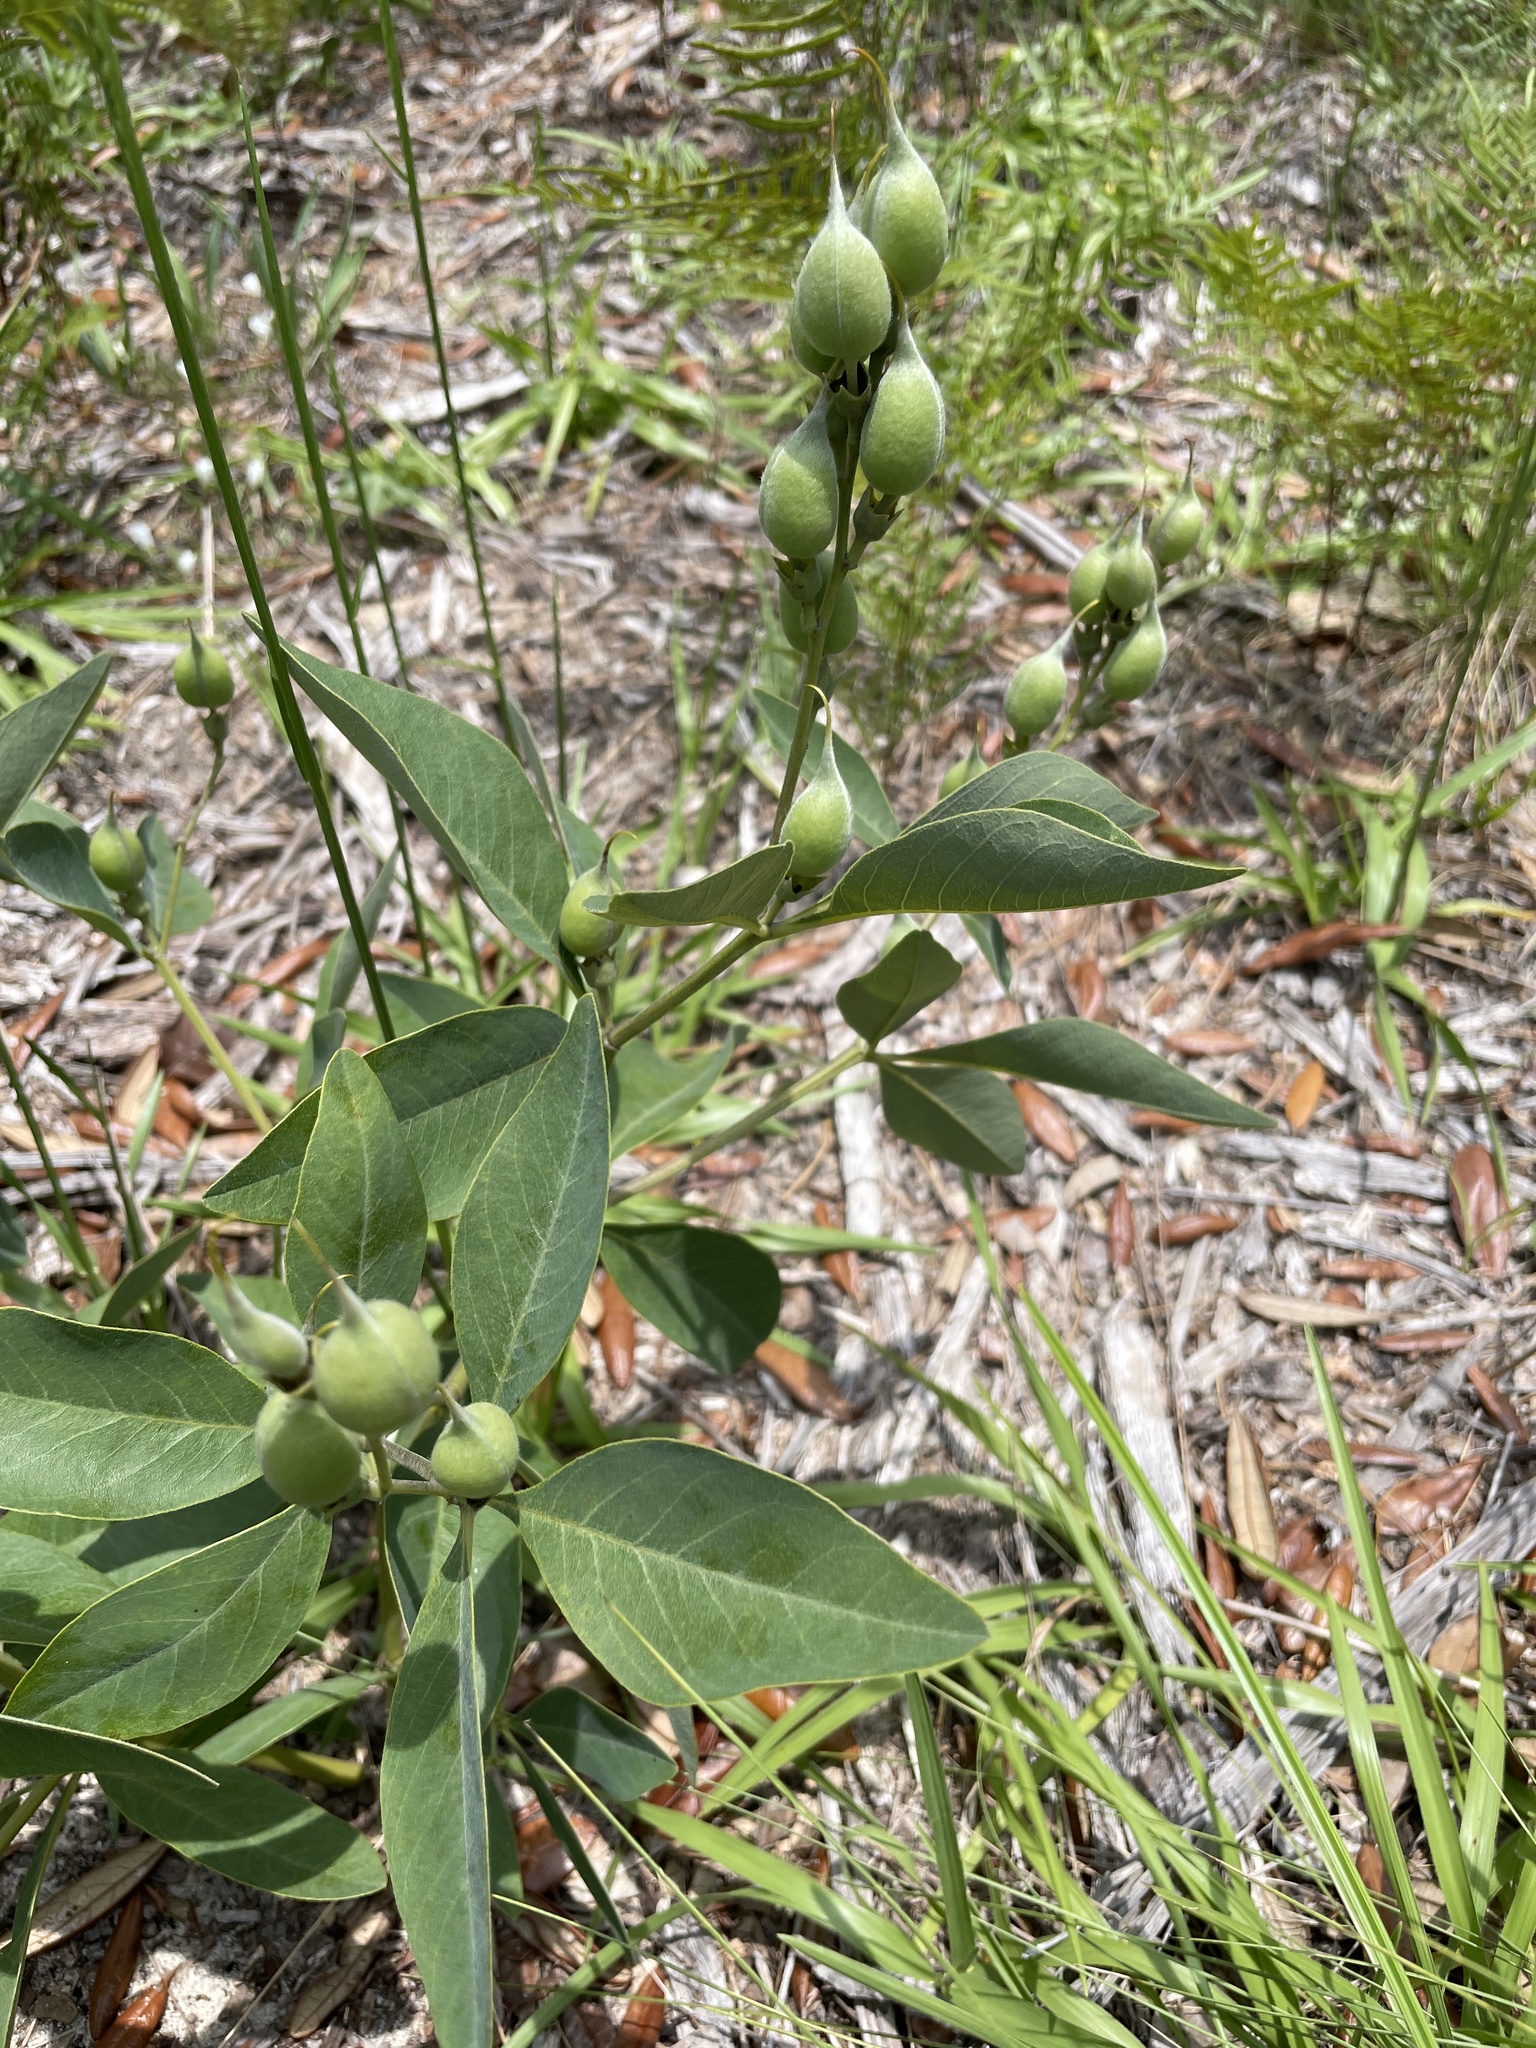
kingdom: Plantae
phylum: Tracheophyta
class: Magnoliopsida
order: Fabales
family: Fabaceae
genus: Baptisia
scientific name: Baptisia lanceolata
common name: Gopherweed
